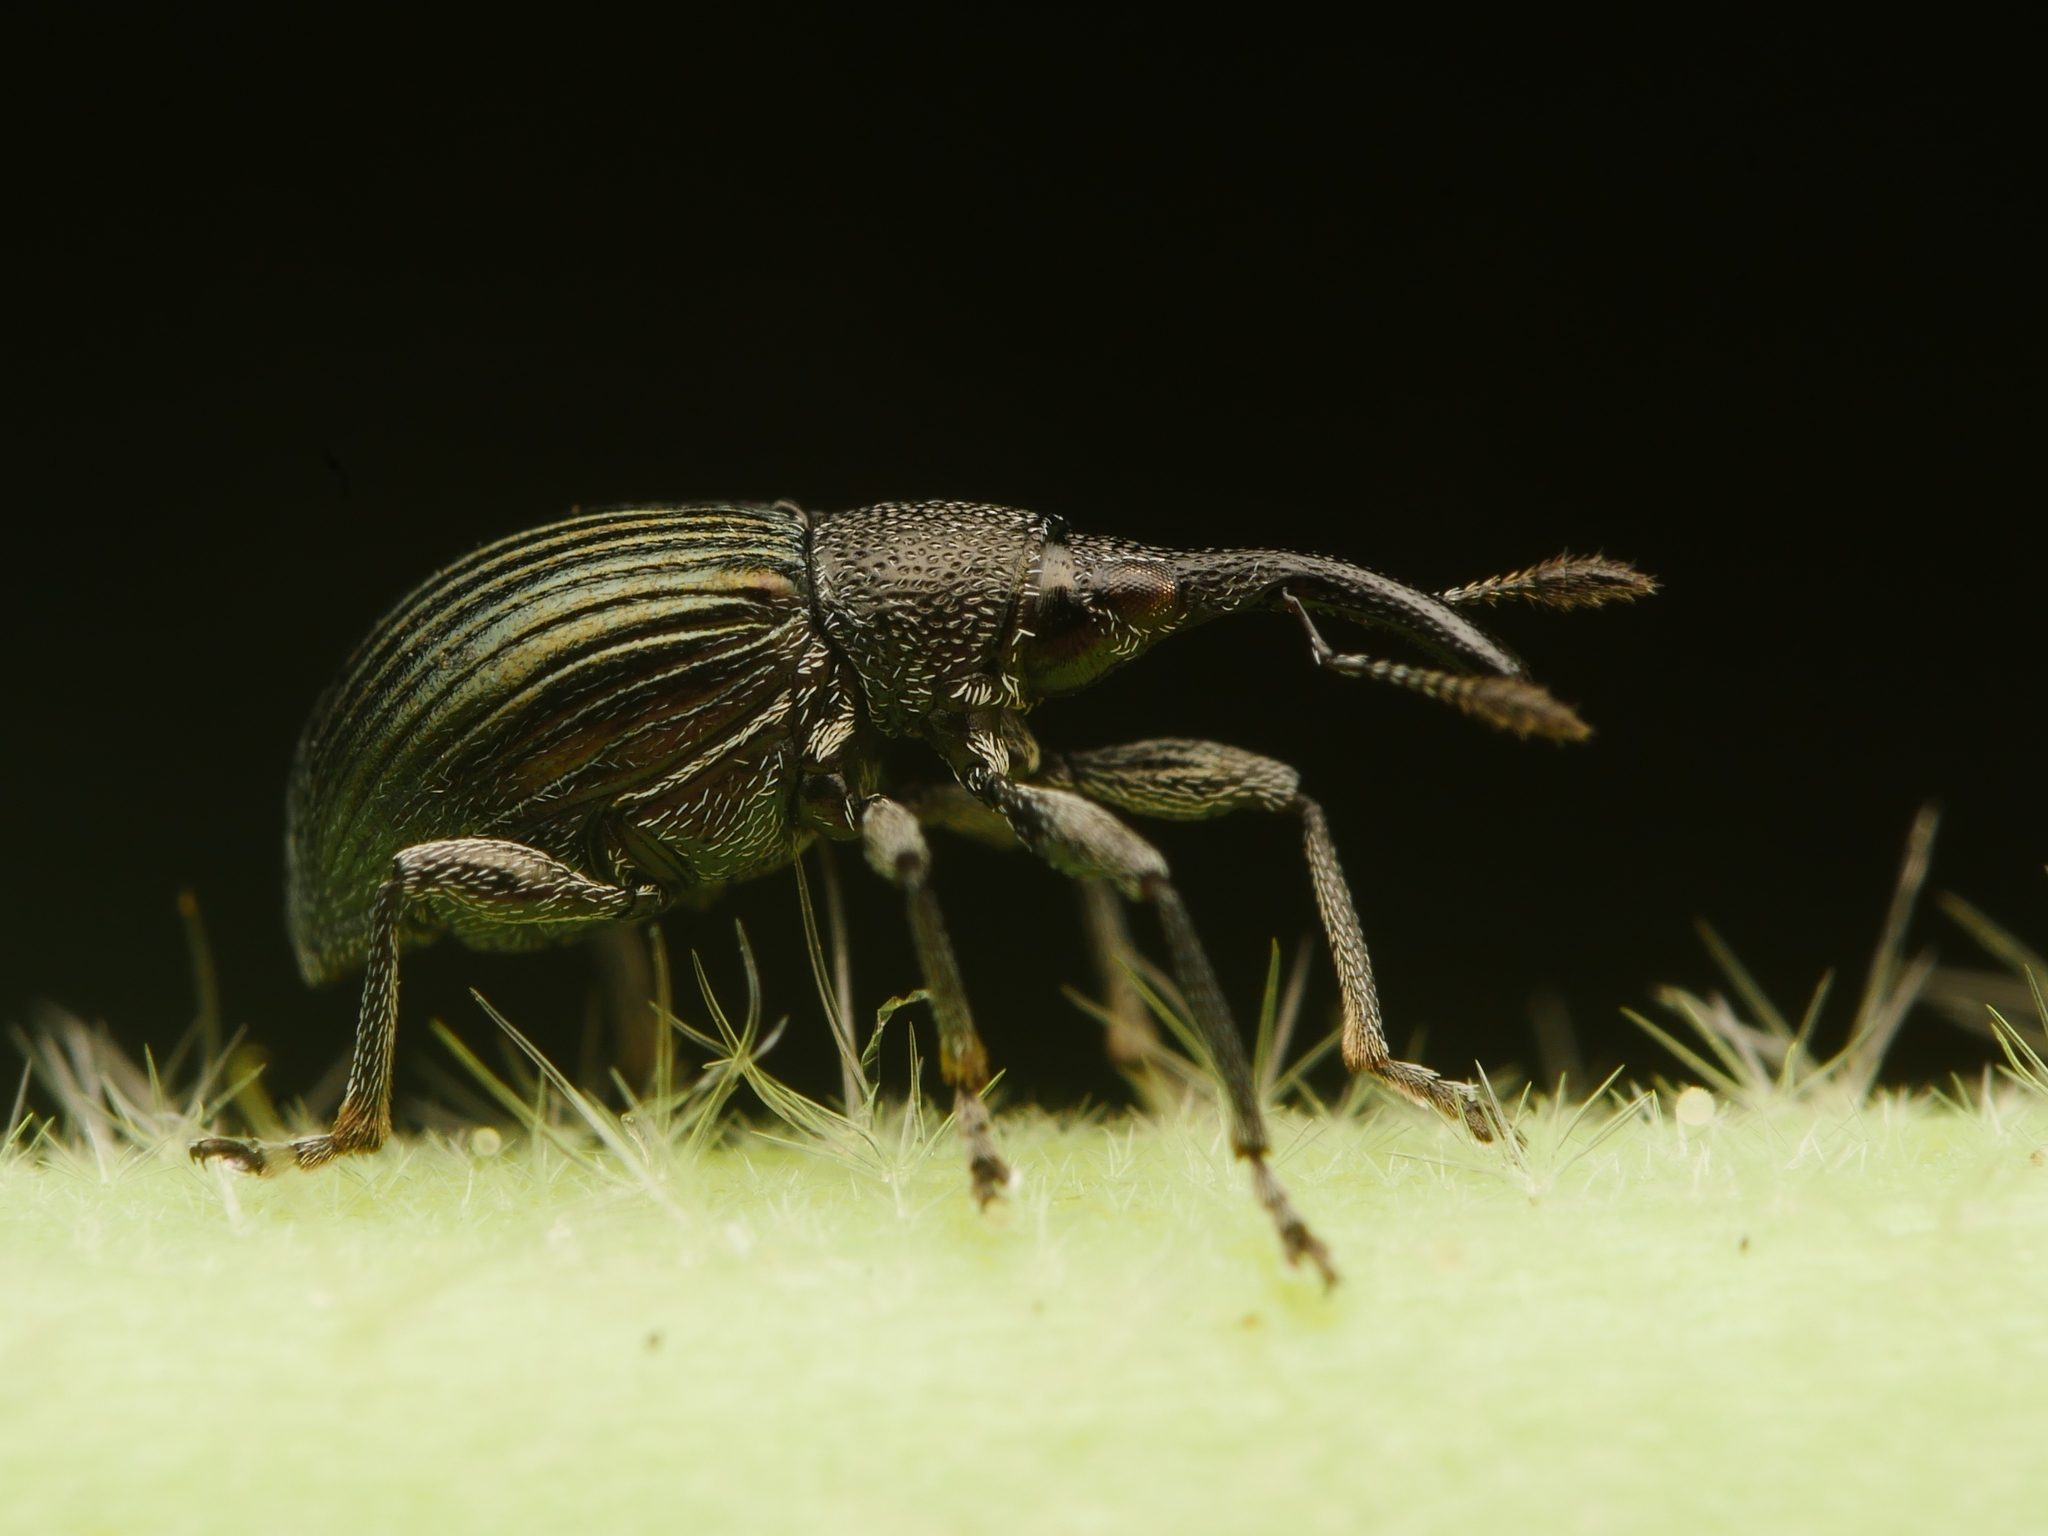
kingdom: Animalia
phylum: Arthropoda
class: Insecta
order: Coleoptera
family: Apionidae
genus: Aspidapion
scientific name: Aspidapion radiolus
